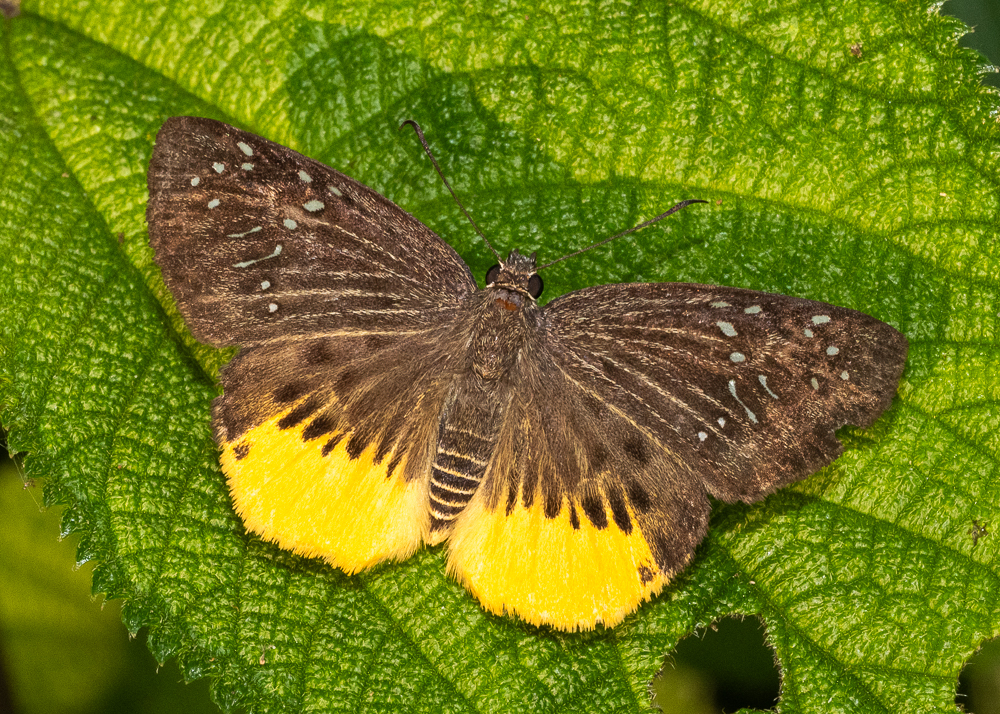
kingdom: Animalia
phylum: Arthropoda
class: Insecta
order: Lepidoptera
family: Hesperiidae
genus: Mooreana
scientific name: Mooreana trichoneura
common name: Yellow flat
